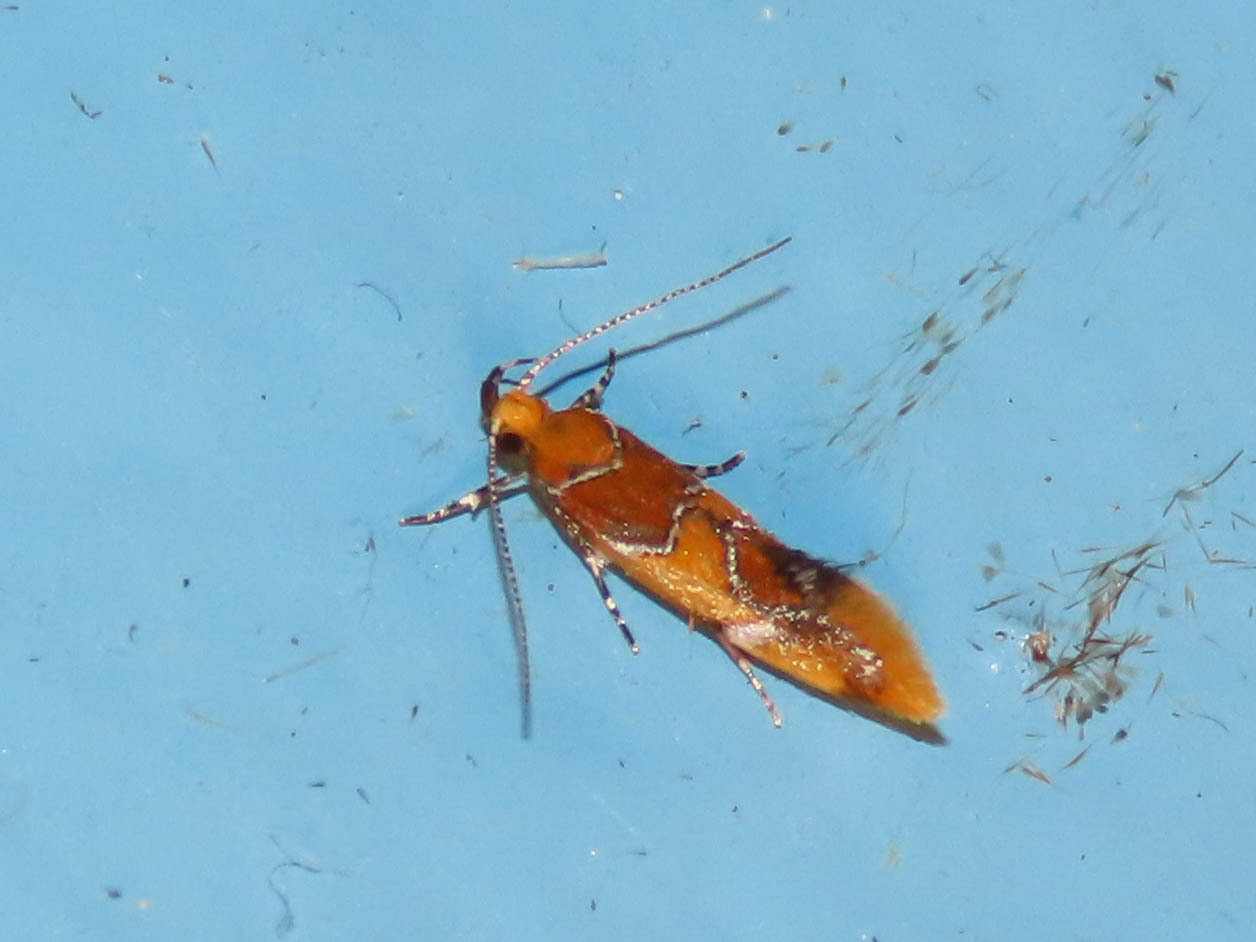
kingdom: Animalia
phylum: Arthropoda
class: Insecta
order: Lepidoptera
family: Oecophoridae
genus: Callima
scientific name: Callima argenticinctella
